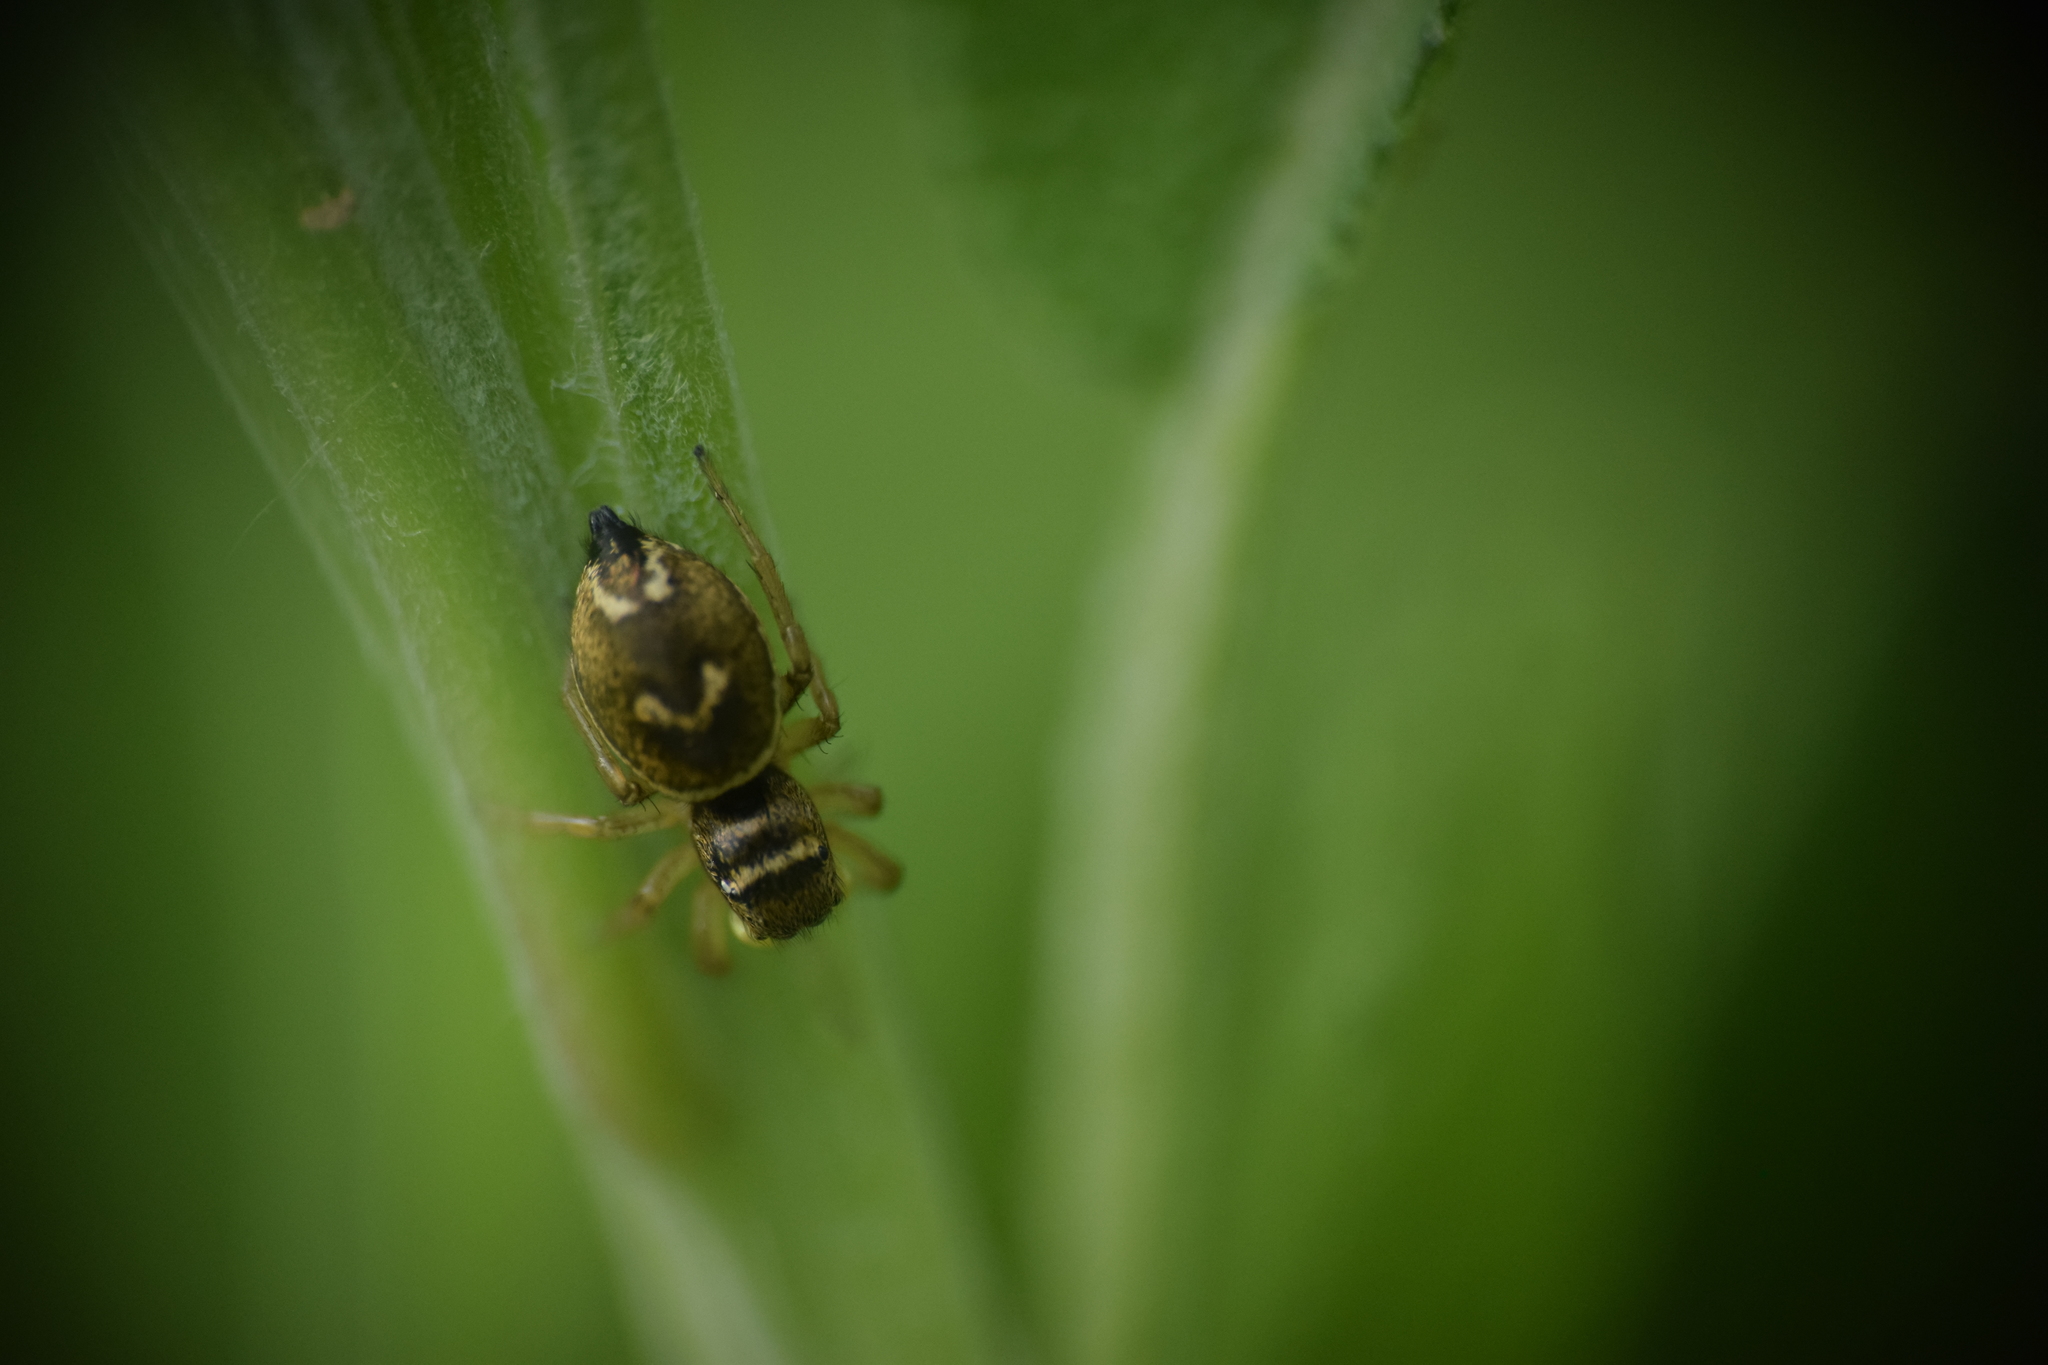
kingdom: Animalia
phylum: Arthropoda
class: Arachnida
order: Araneae
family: Salticidae
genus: Heliophanus
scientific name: Heliophanus tribulosus
